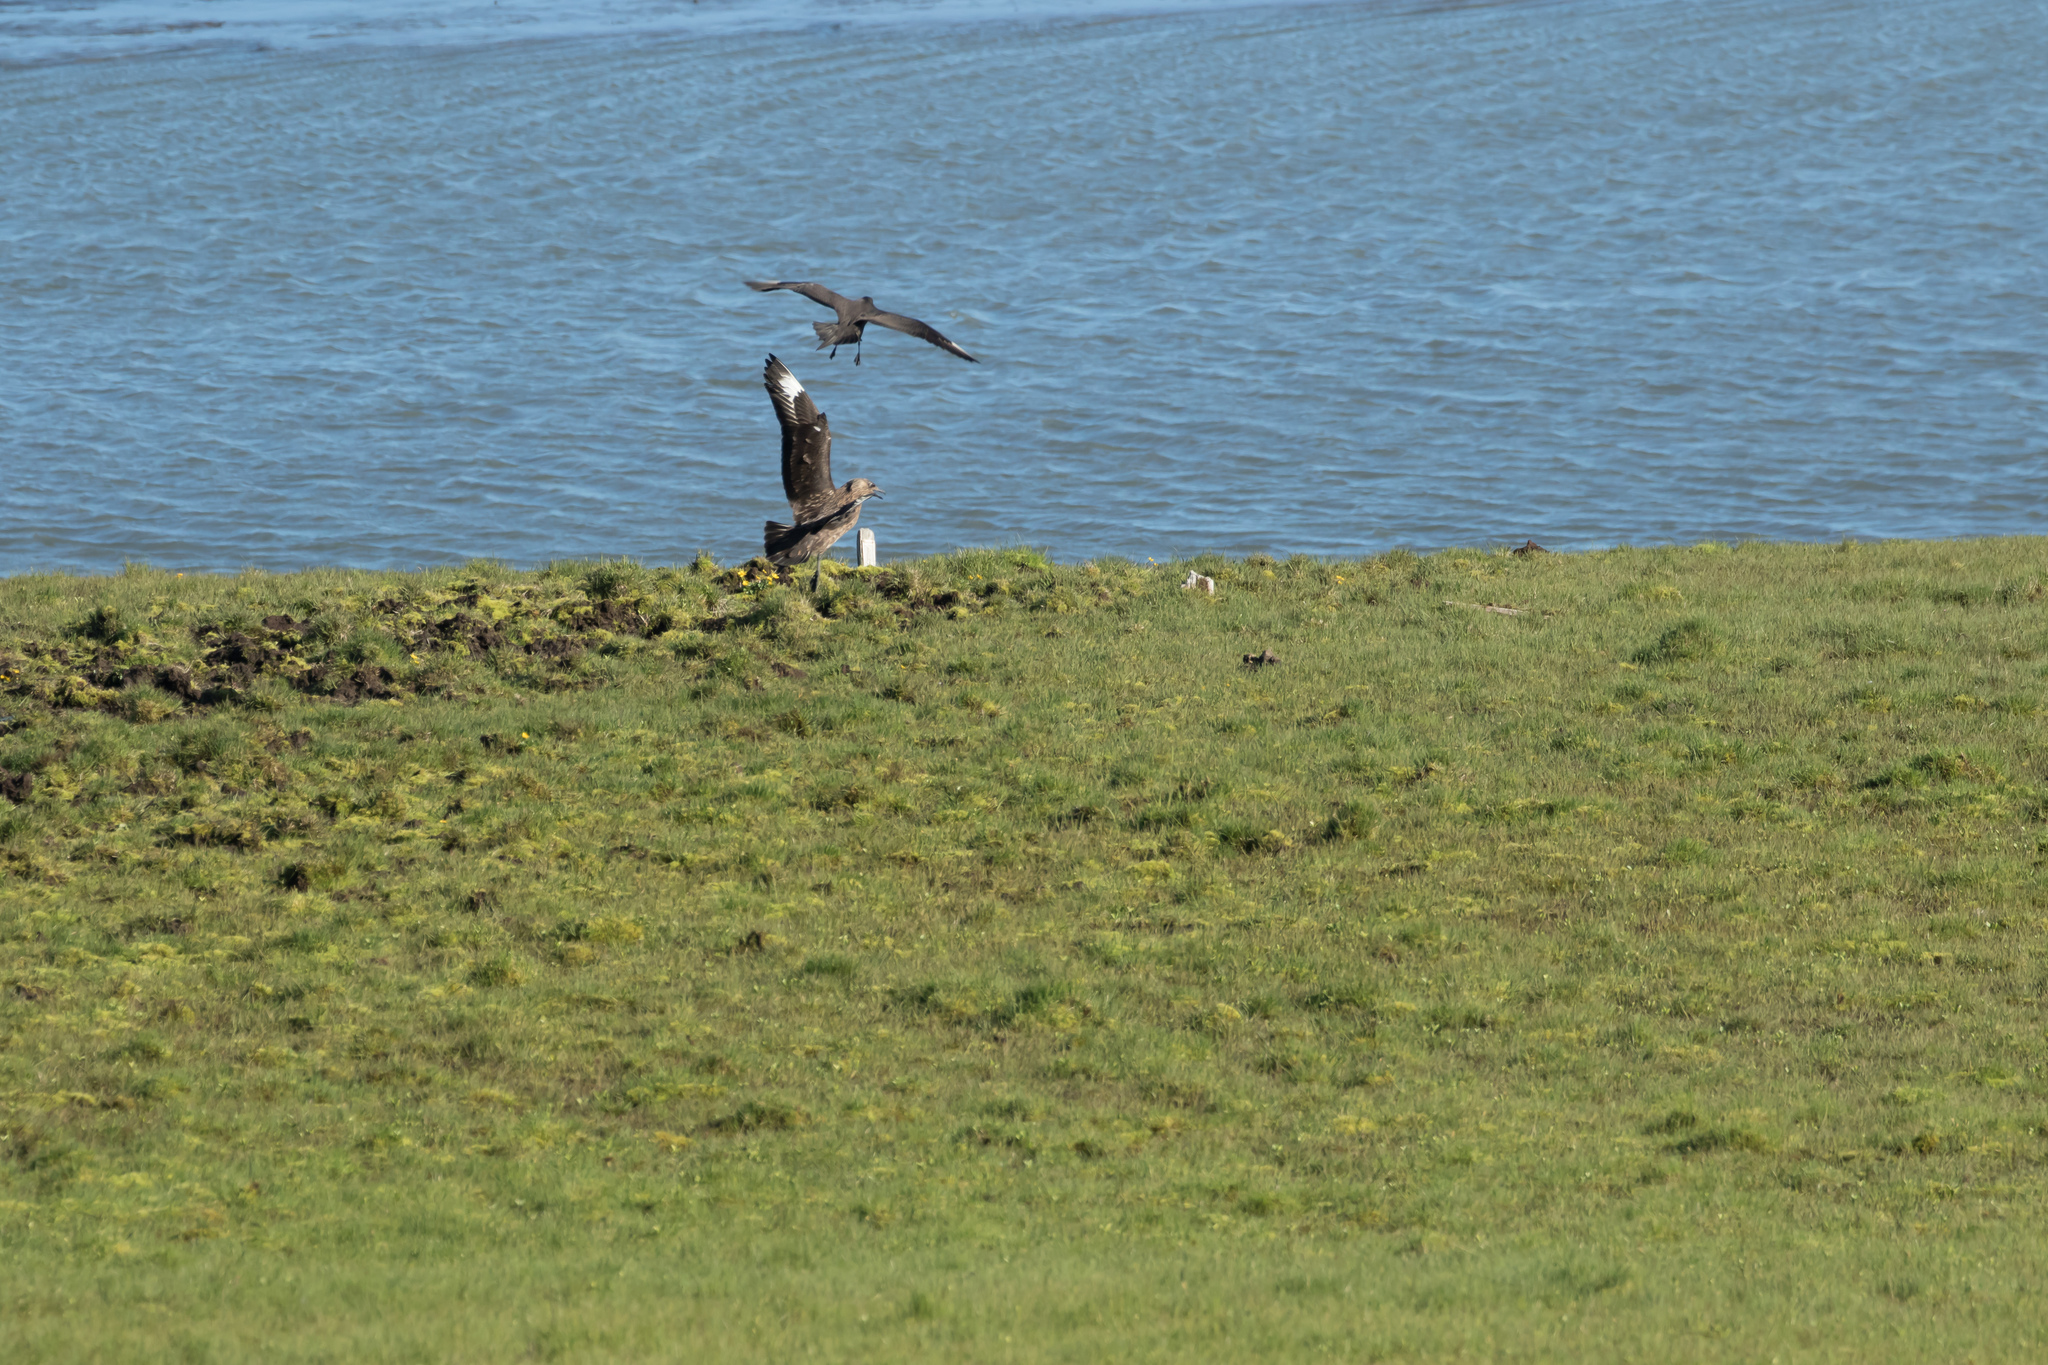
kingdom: Animalia
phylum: Chordata
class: Aves
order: Charadriiformes
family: Stercorariidae
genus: Stercorarius
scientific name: Stercorarius skua
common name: Great skua
